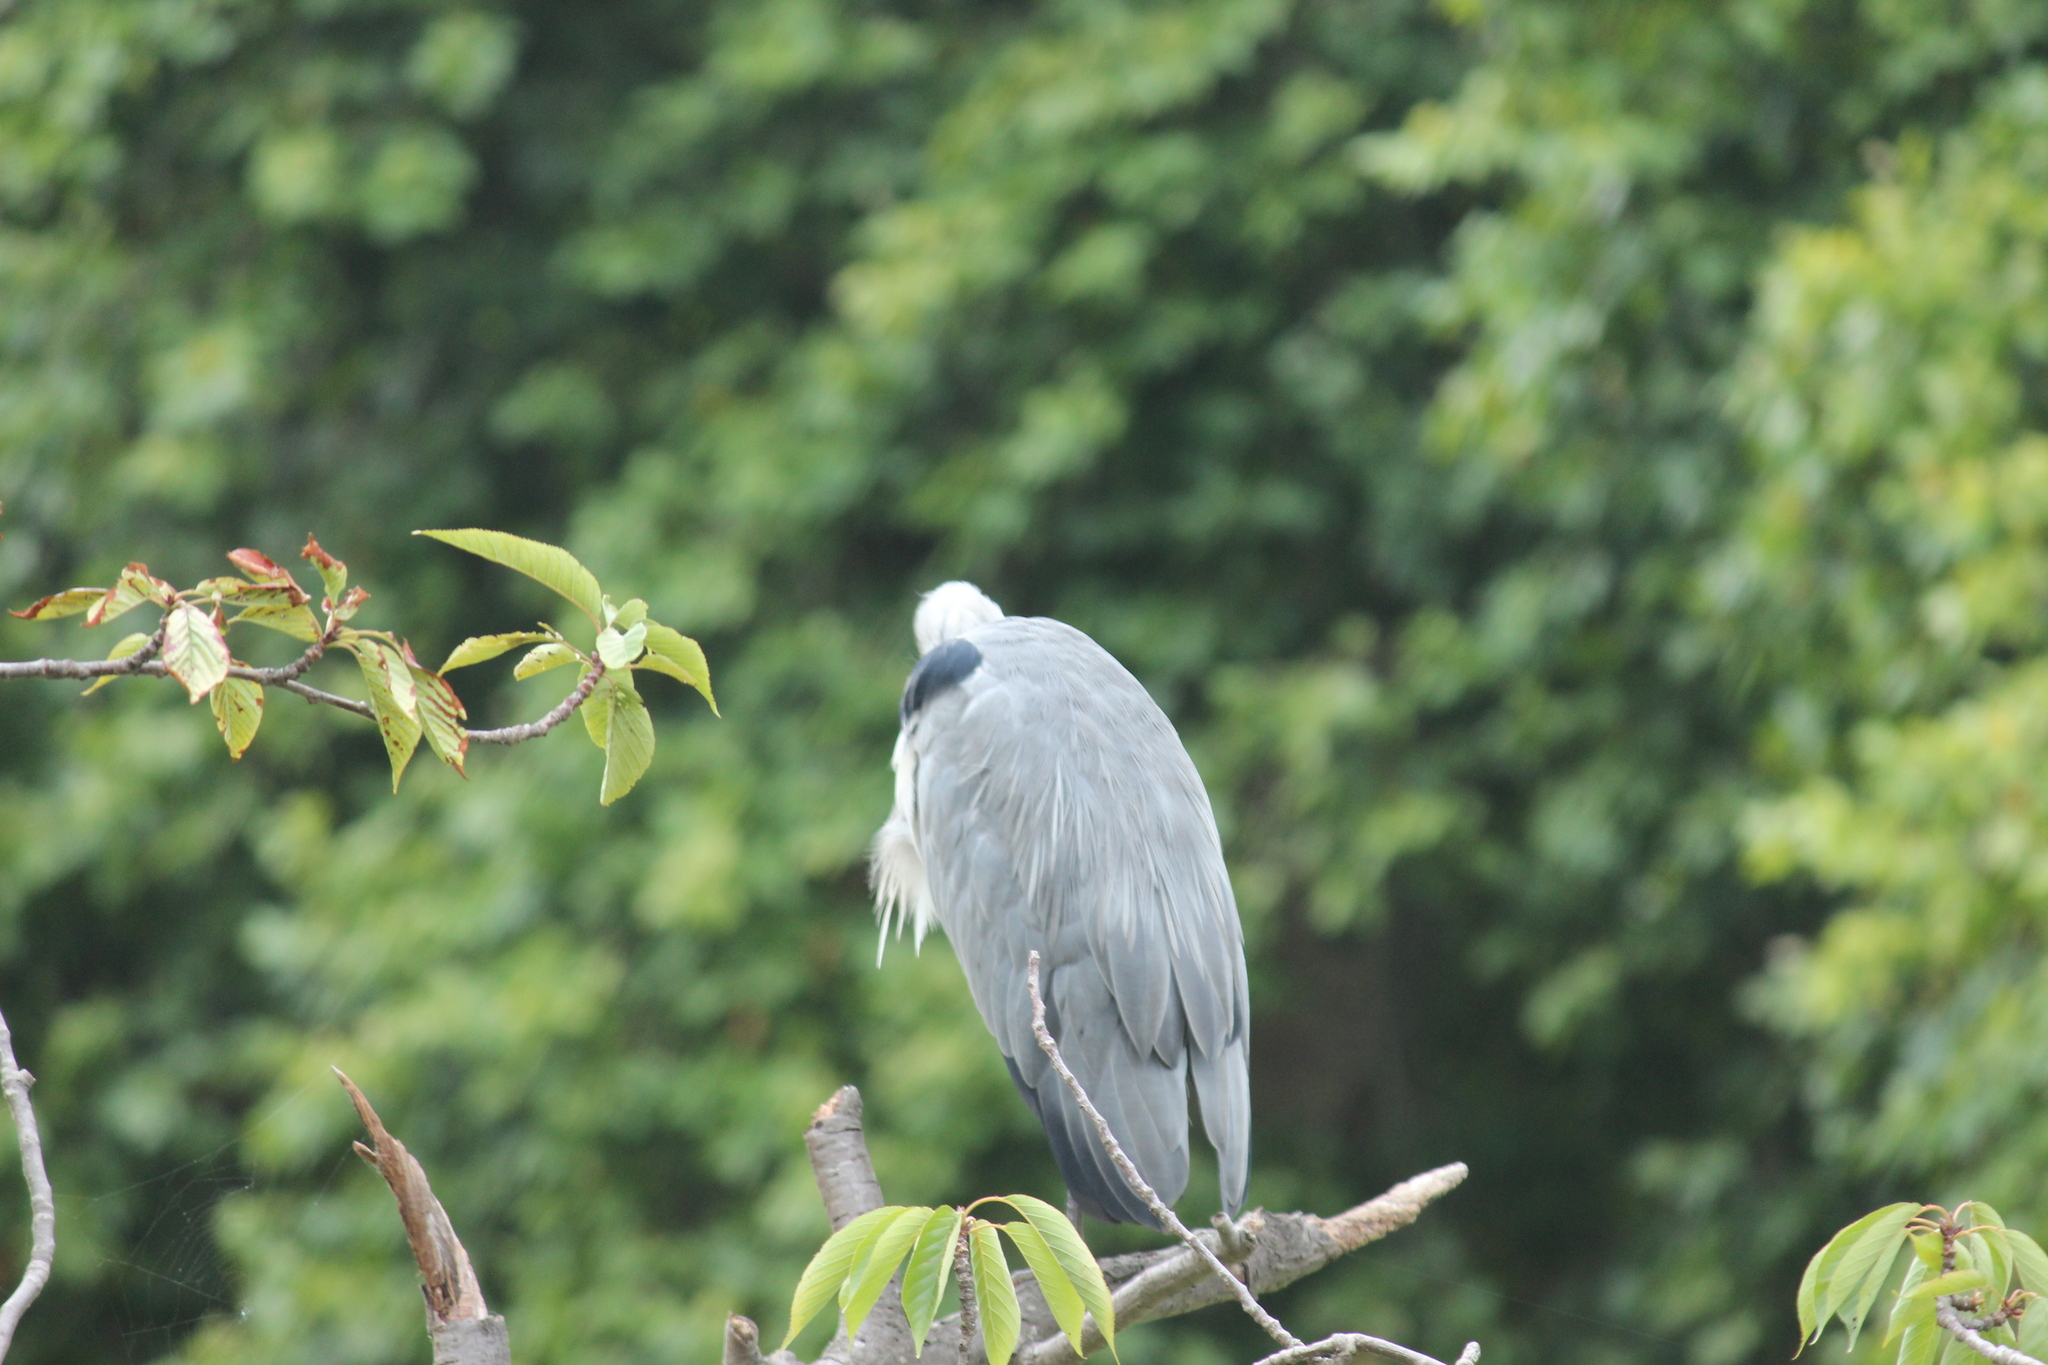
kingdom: Animalia
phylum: Chordata
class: Aves
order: Pelecaniformes
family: Ardeidae
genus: Ardea
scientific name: Ardea cinerea
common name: Grey heron
